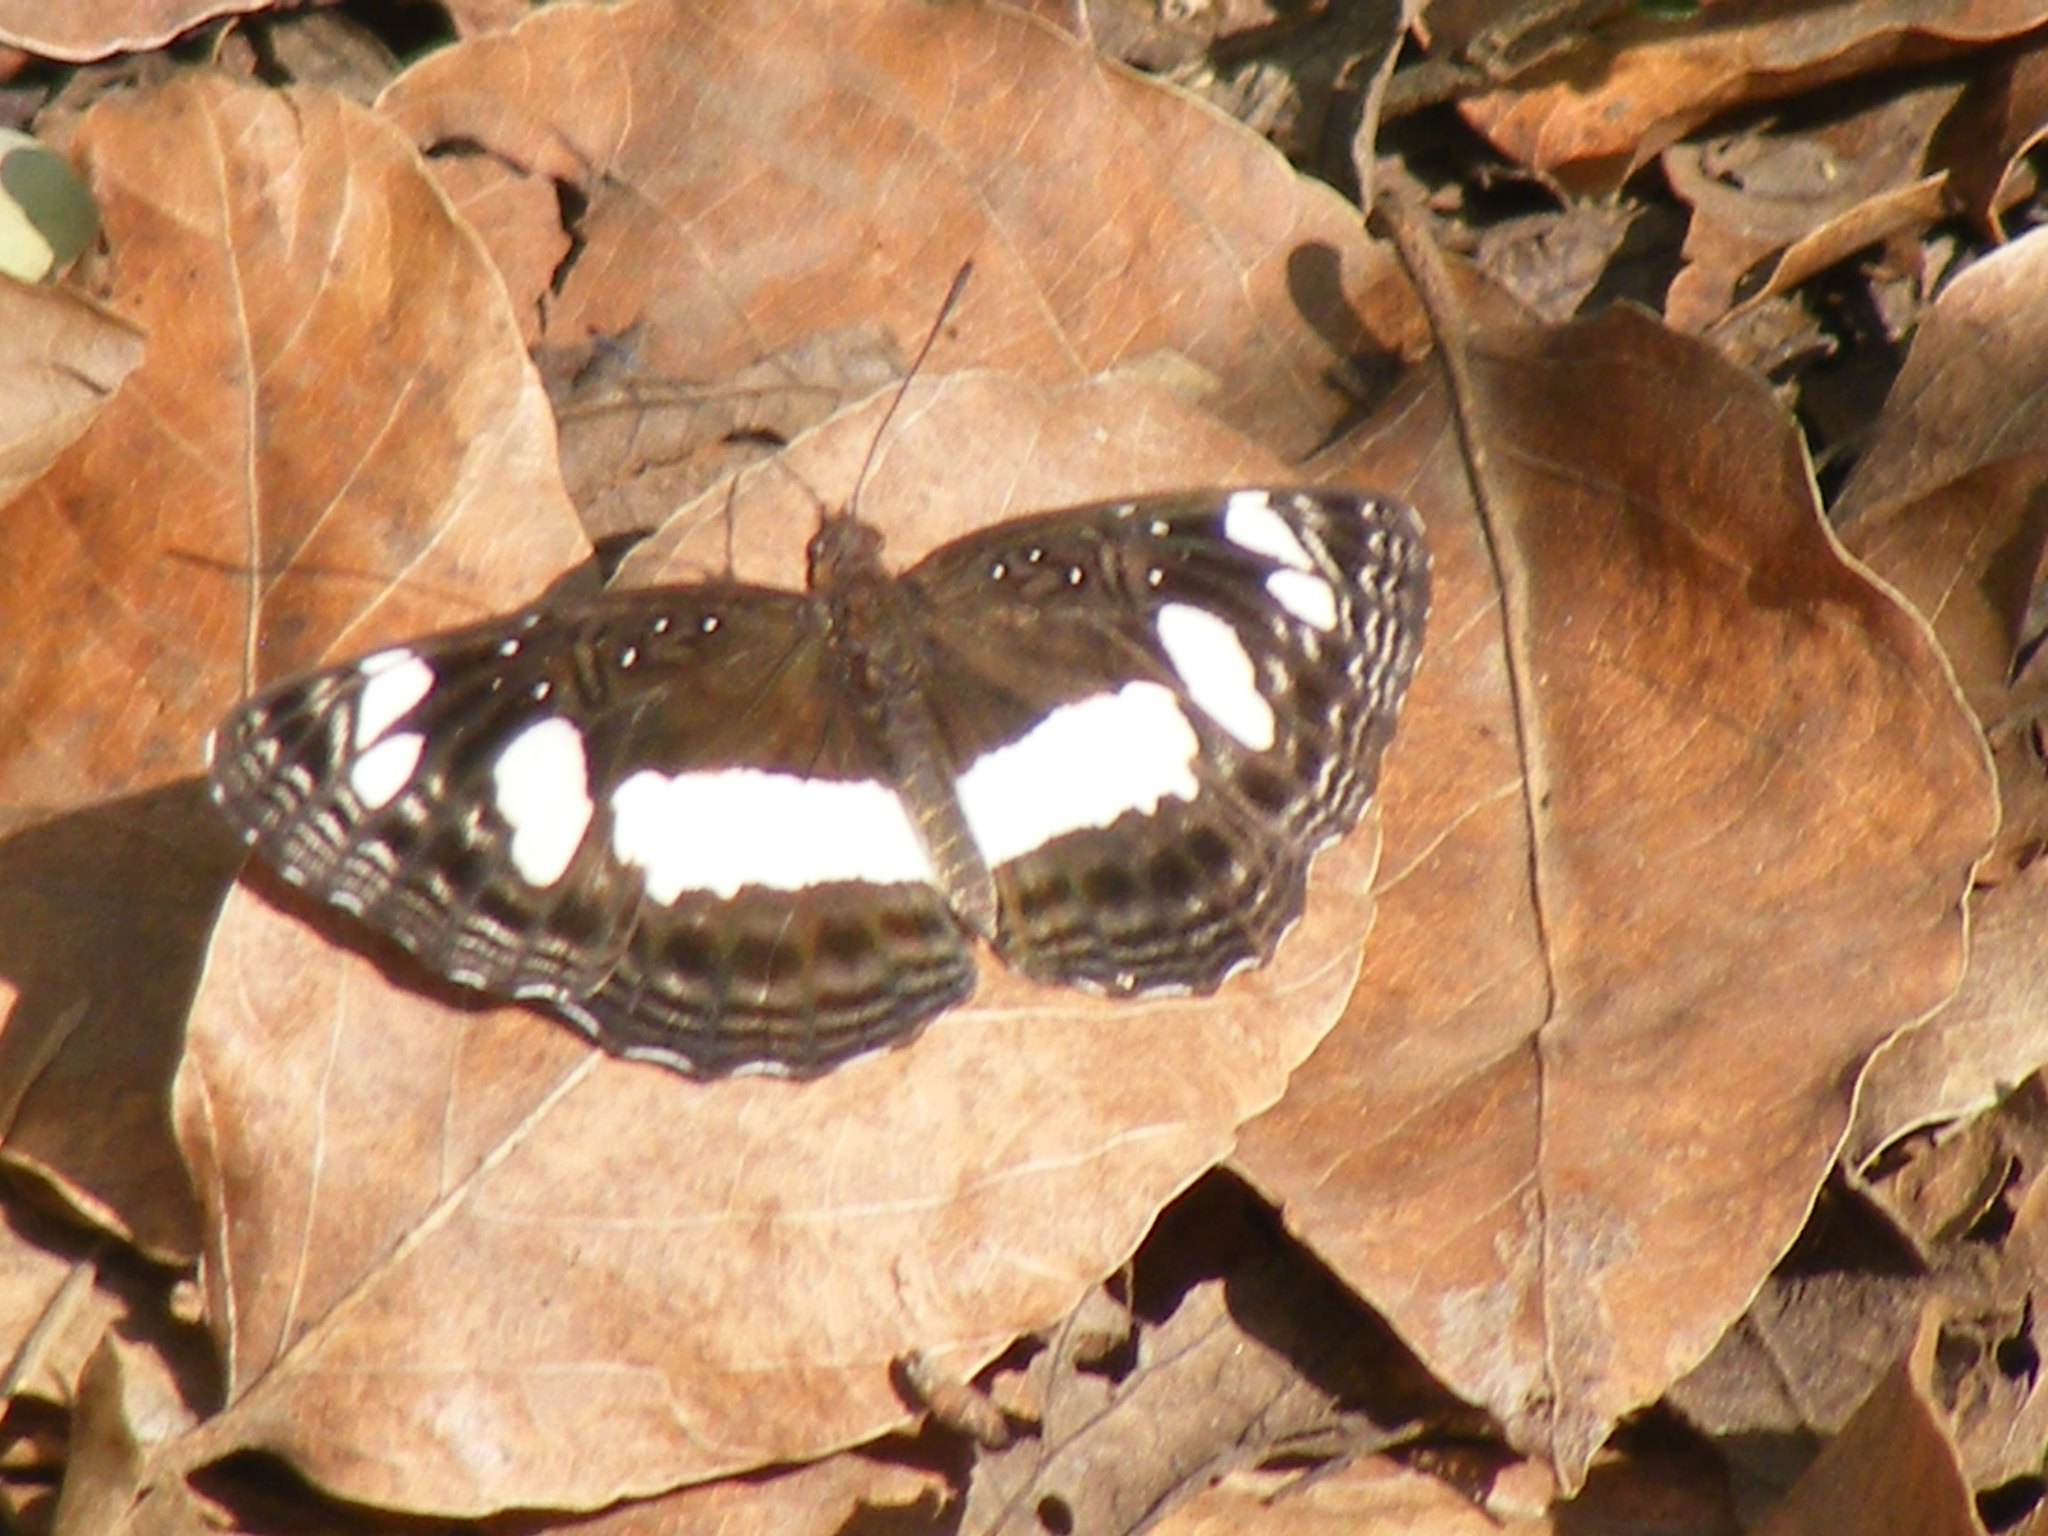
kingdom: Animalia
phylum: Arthropoda
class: Insecta
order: Lepidoptera
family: Nymphalidae
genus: Neptis
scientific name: Neptis saclava
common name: Small spotted sailor
